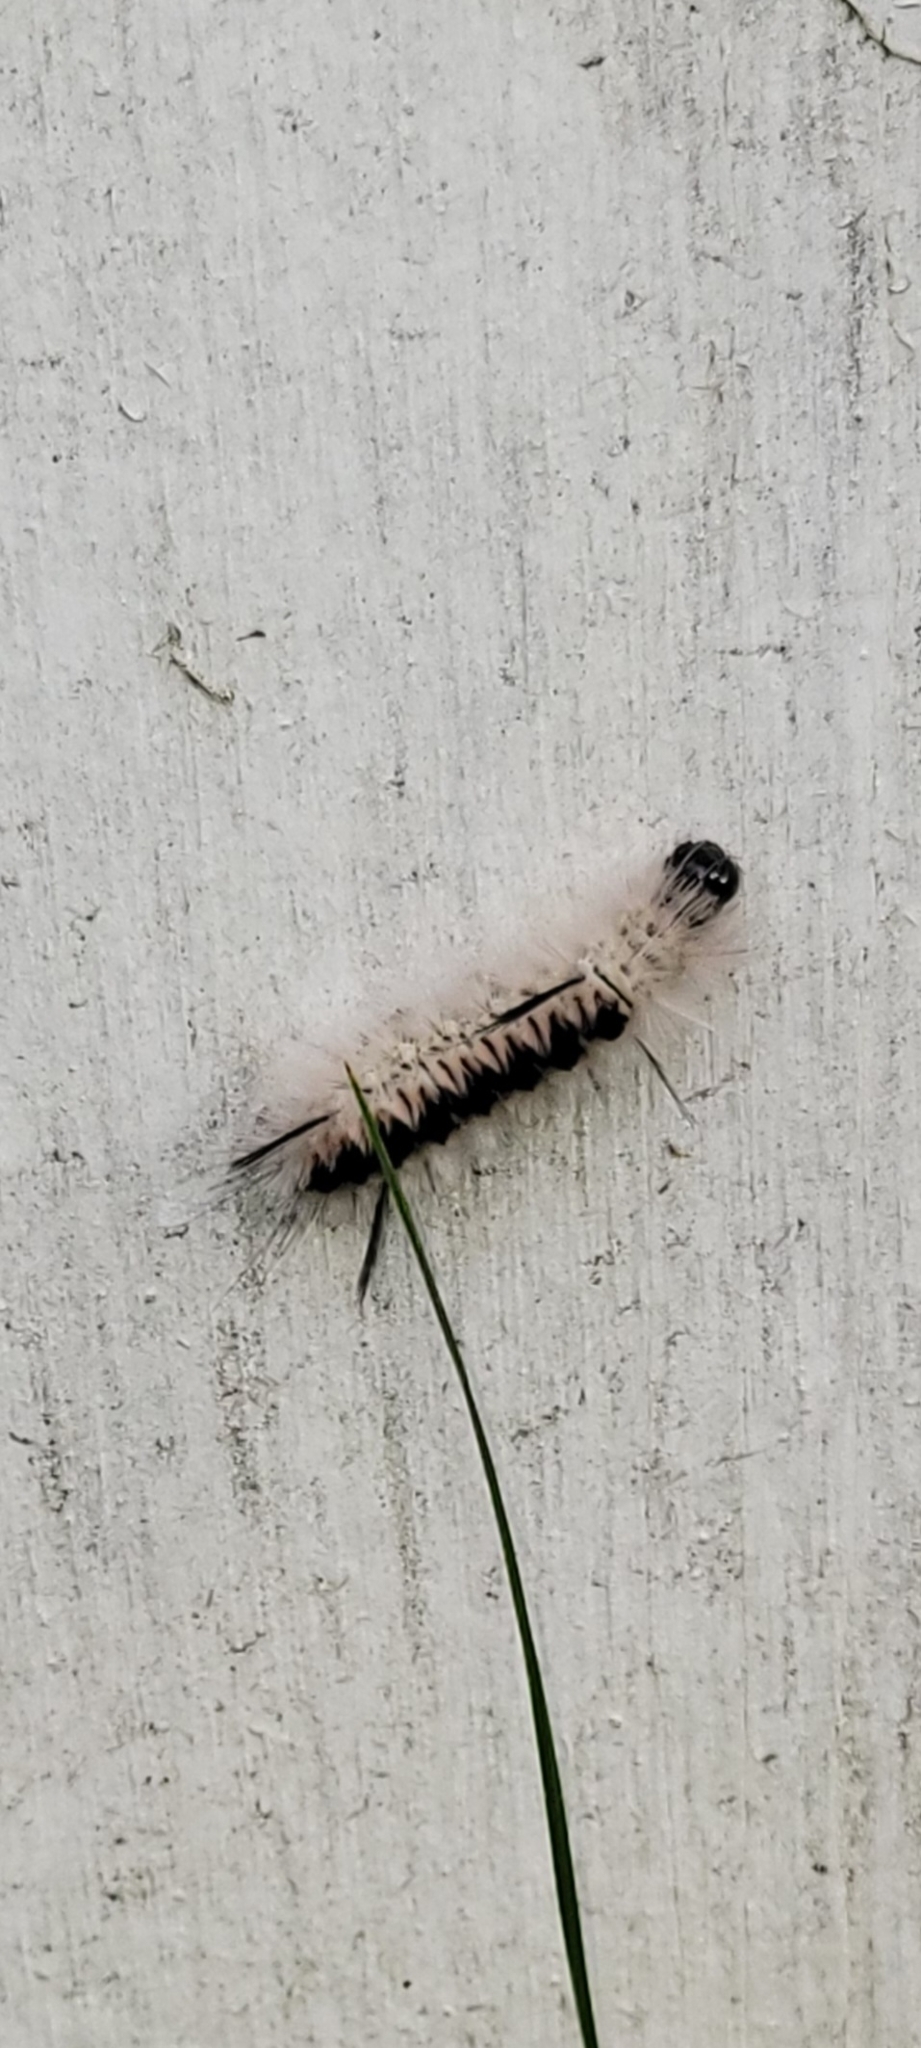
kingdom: Animalia
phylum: Arthropoda
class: Insecta
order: Lepidoptera
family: Erebidae
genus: Lophocampa
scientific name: Lophocampa caryae
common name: Hickory tussock moth
